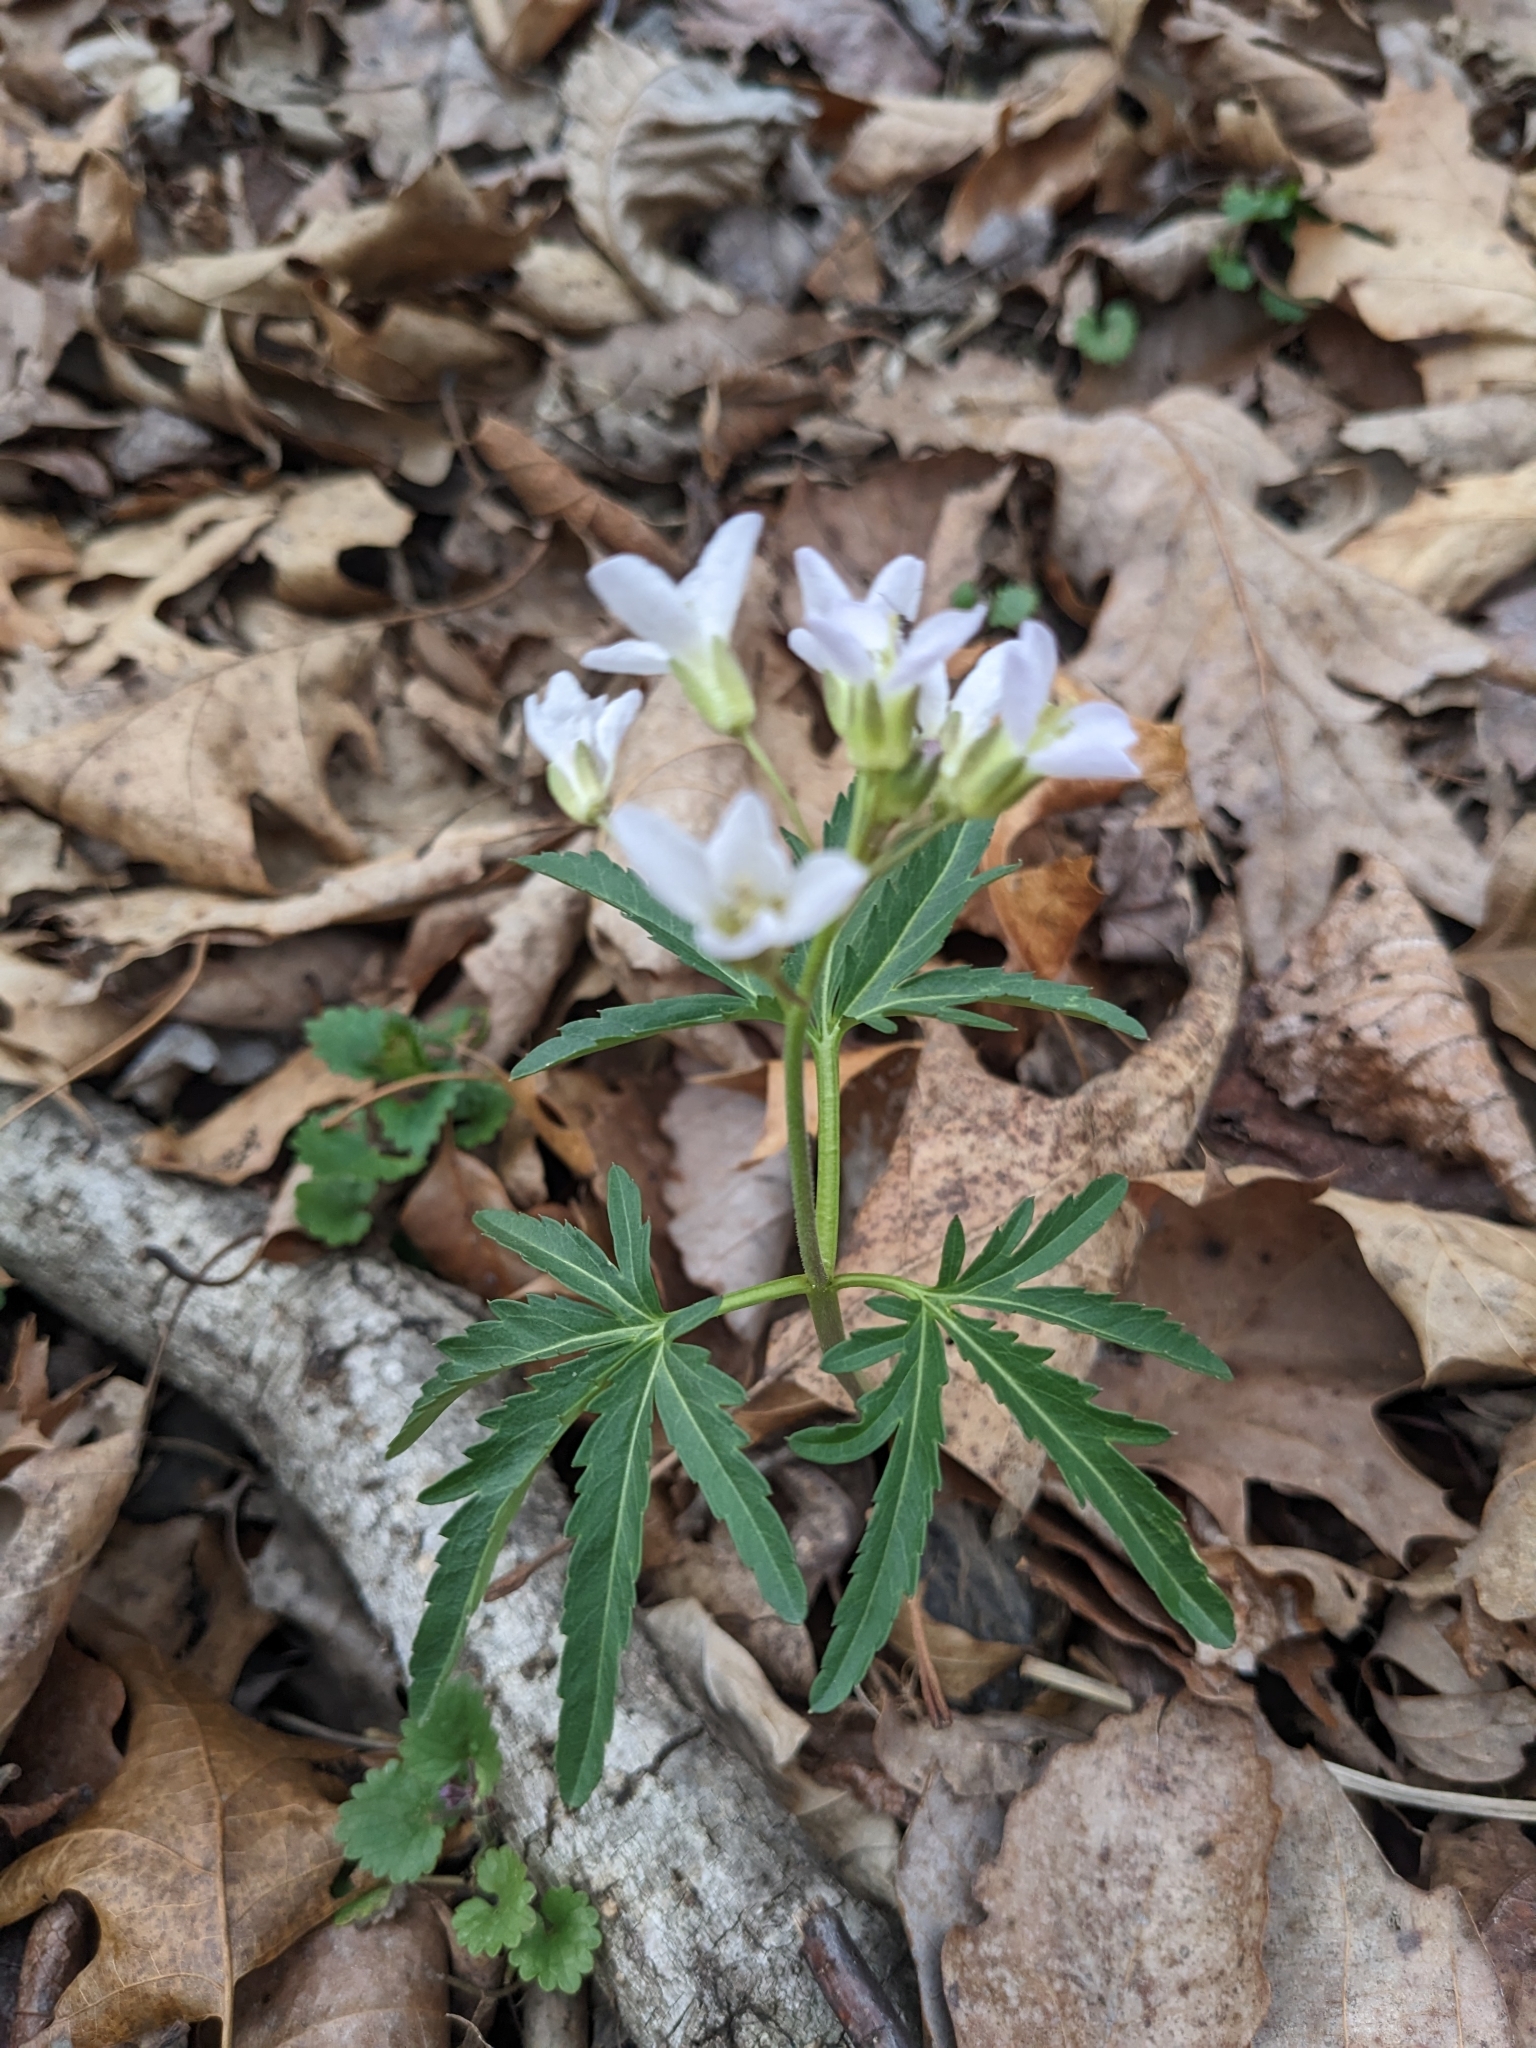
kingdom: Plantae
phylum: Tracheophyta
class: Magnoliopsida
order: Brassicales
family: Brassicaceae
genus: Cardamine
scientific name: Cardamine concatenata
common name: Cut-leaf toothcup
